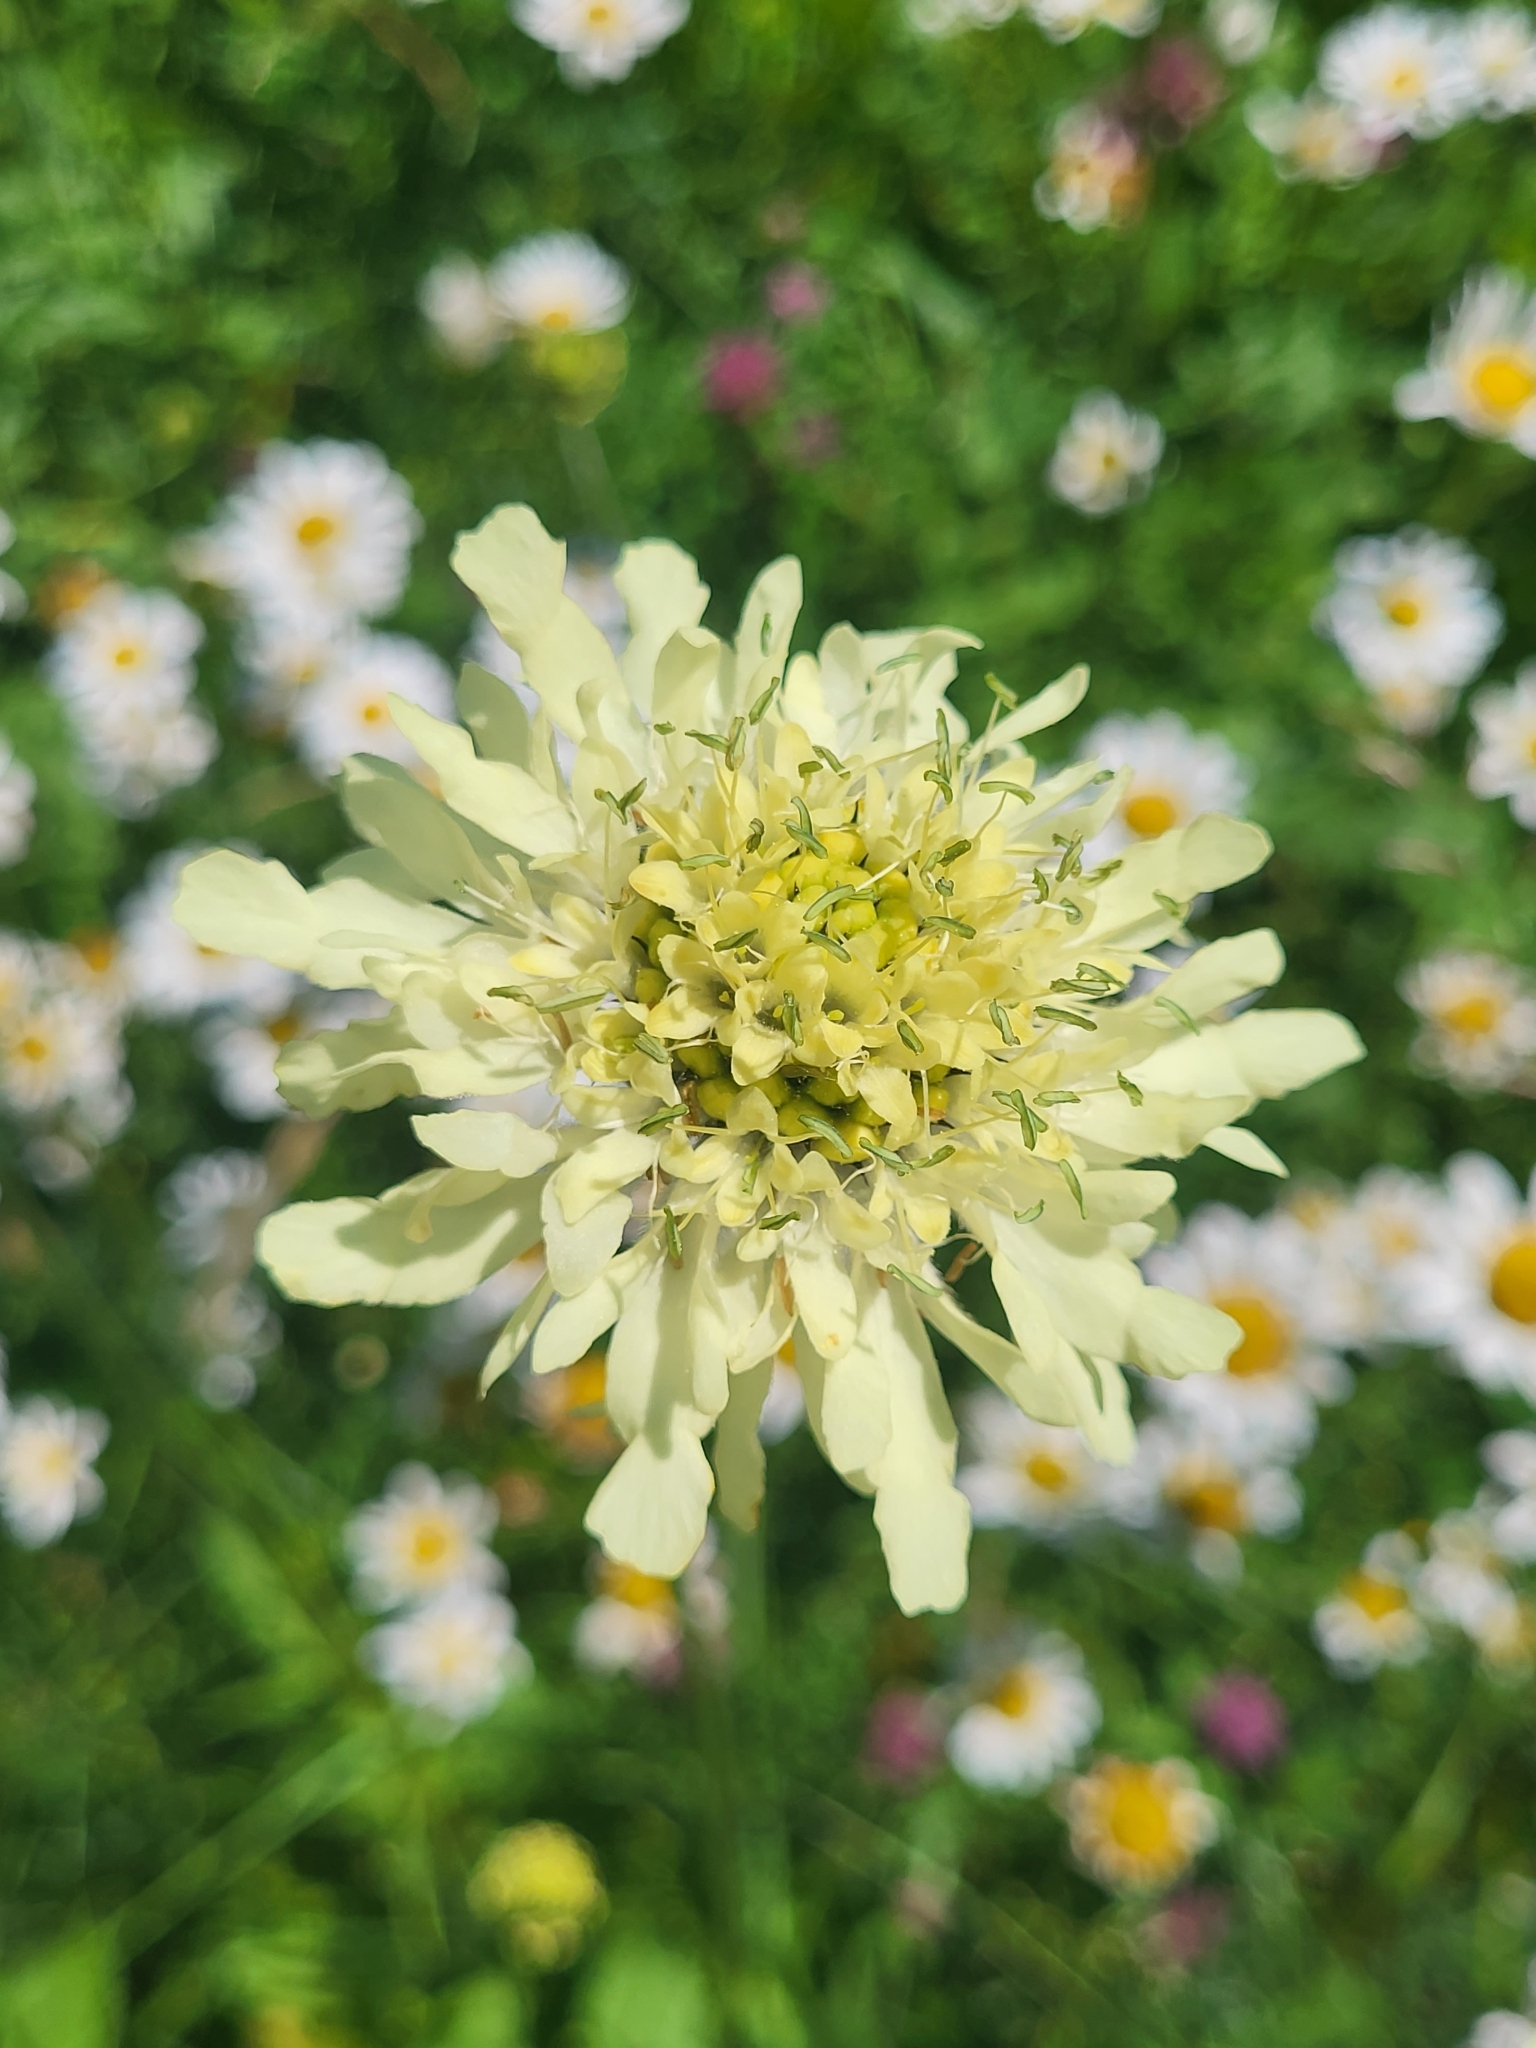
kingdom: Plantae
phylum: Tracheophyta
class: Magnoliopsida
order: Dipsacales
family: Caprifoliaceae
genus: Cephalaria
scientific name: Cephalaria gigantea
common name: Tatarian cephalaria
